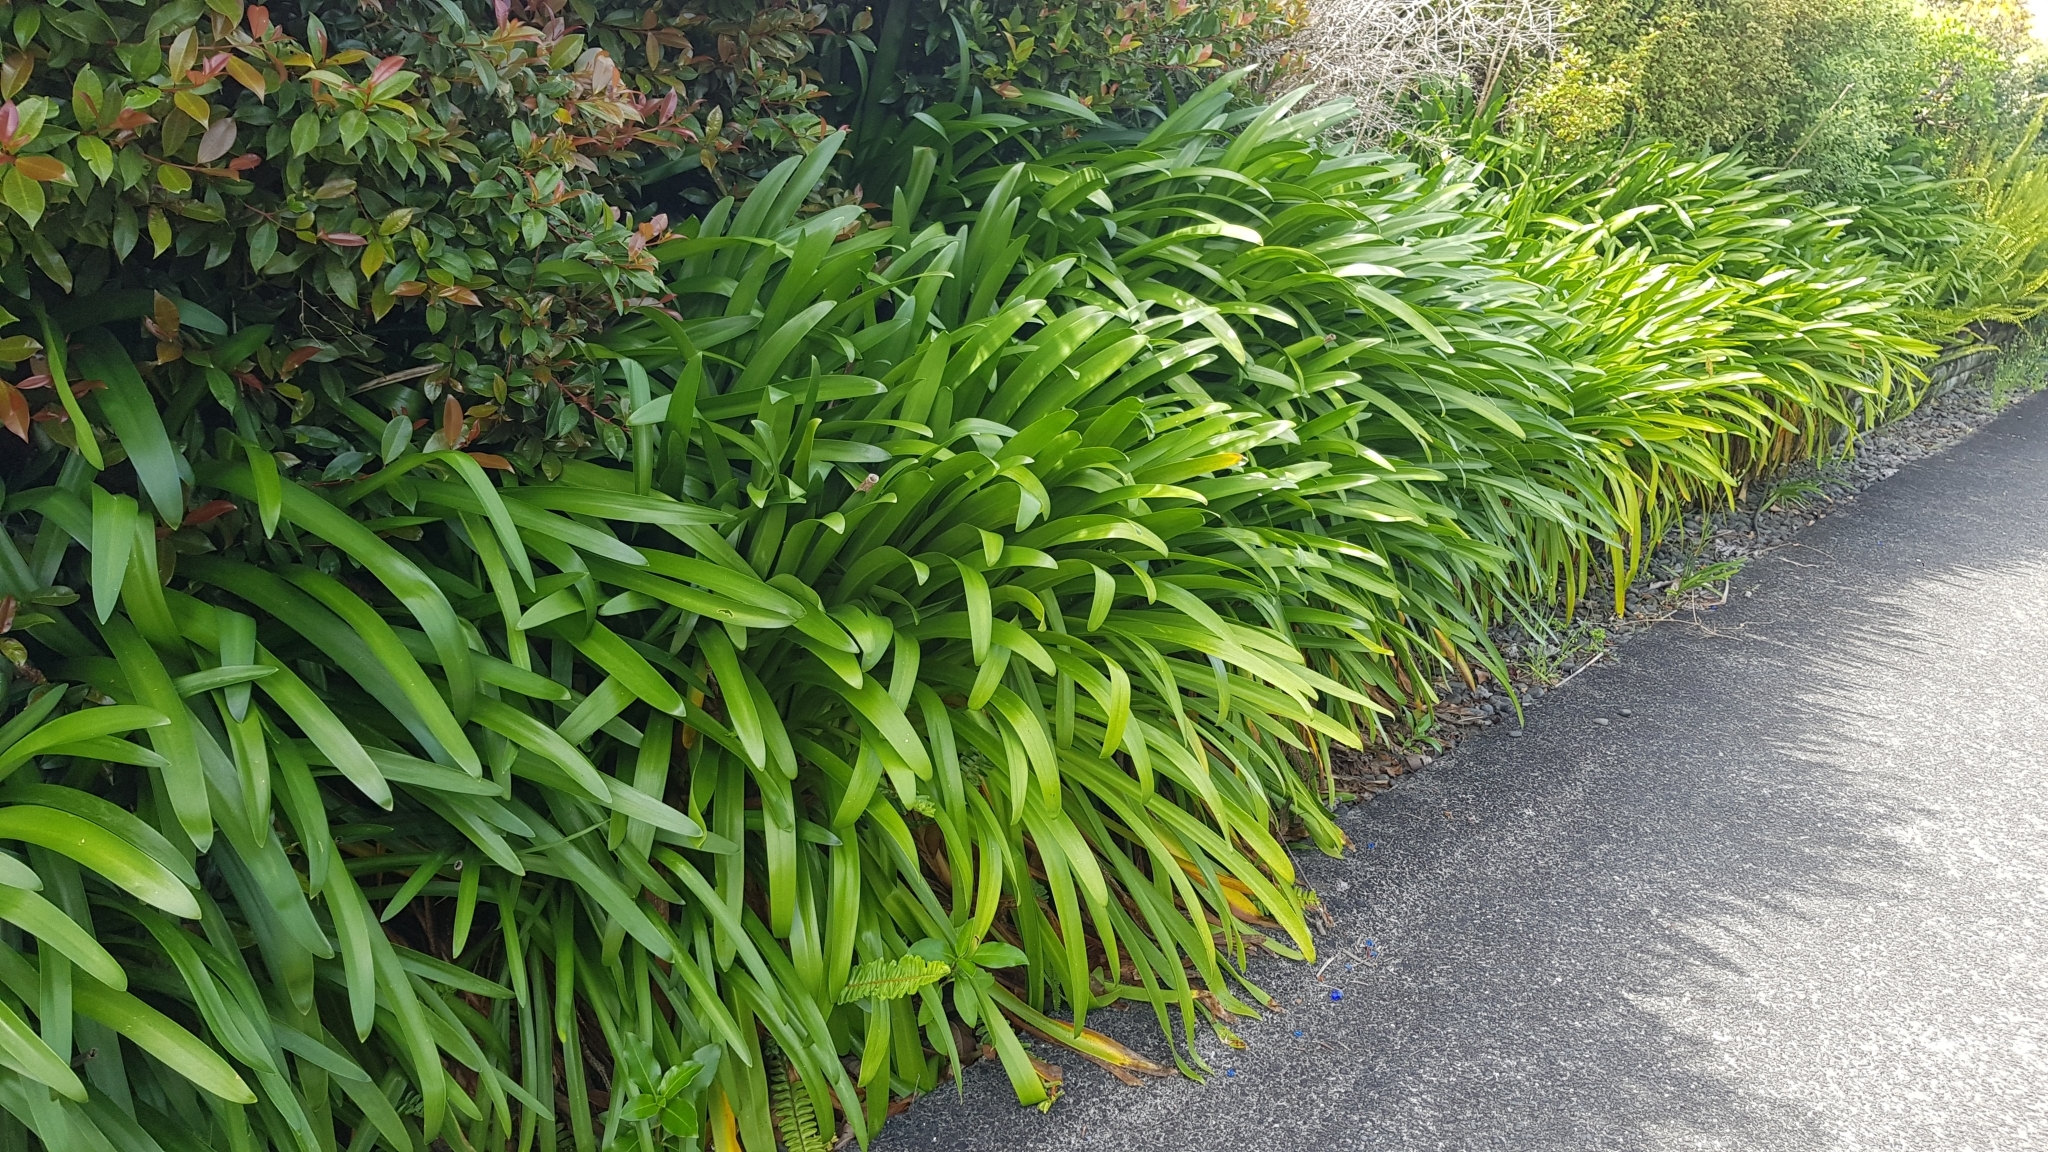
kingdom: Plantae
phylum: Tracheophyta
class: Liliopsida
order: Asparagales
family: Amaryllidaceae
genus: Agapanthus
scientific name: Agapanthus praecox
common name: African-lily
